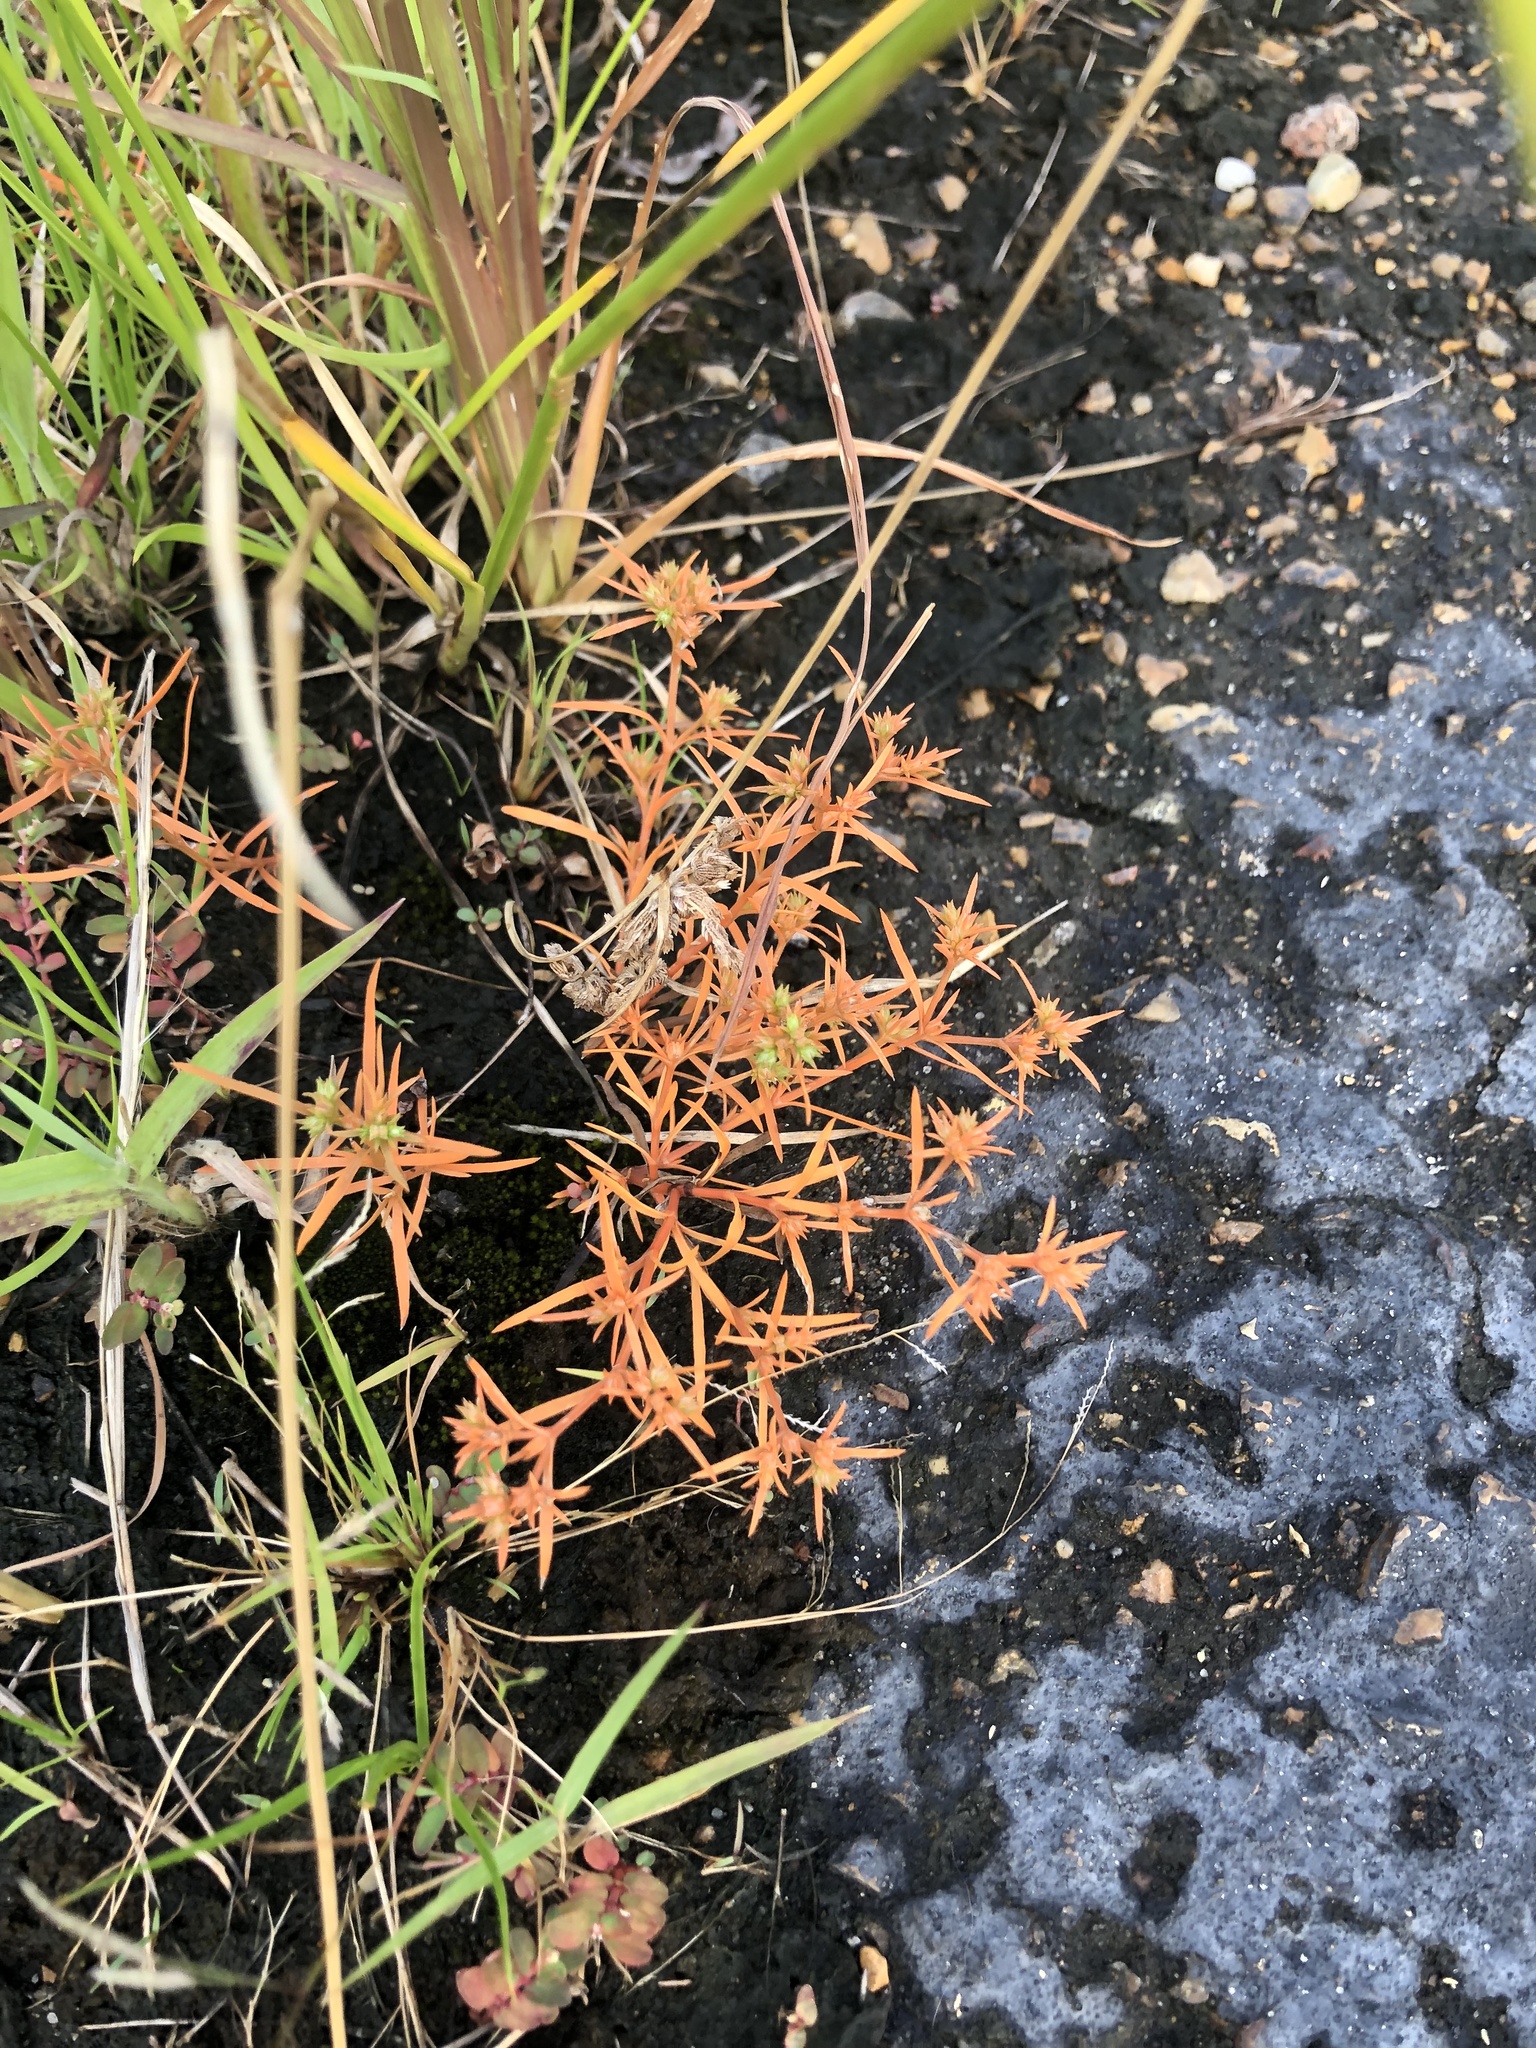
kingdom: Plantae
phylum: Tracheophyta
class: Magnoliopsida
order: Lamiales
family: Tetrachondraceae
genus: Polypremum
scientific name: Polypremum procumbens
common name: Juniper-leaf
